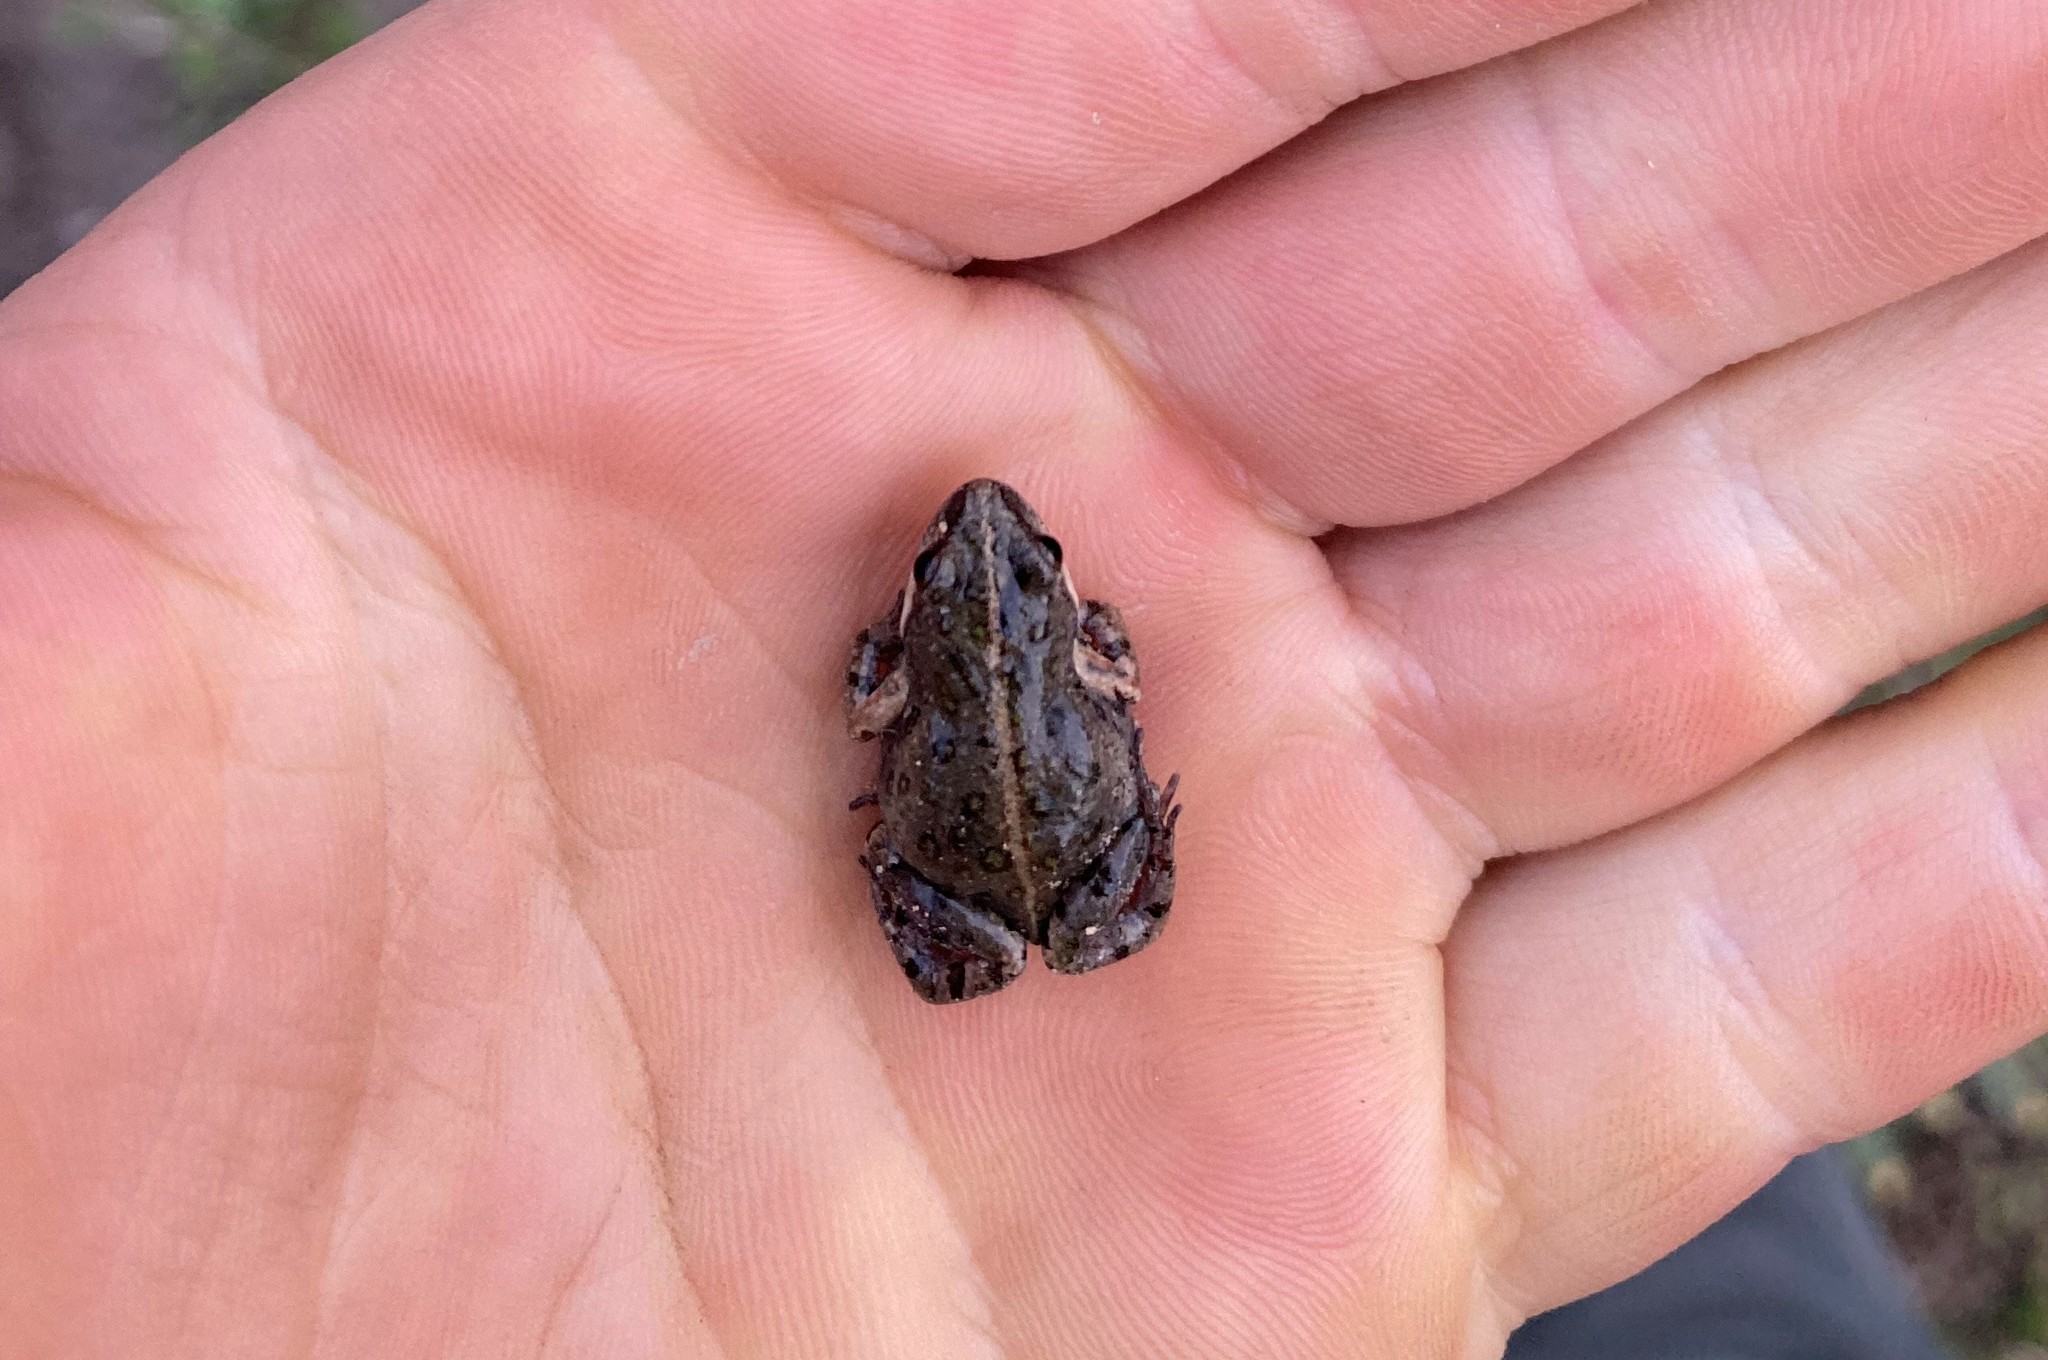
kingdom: Animalia
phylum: Chordata
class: Amphibia
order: Anura
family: Pyxicephalidae
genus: Cacosternum
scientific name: Cacosternum boettgeri
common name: Boettger's frog
